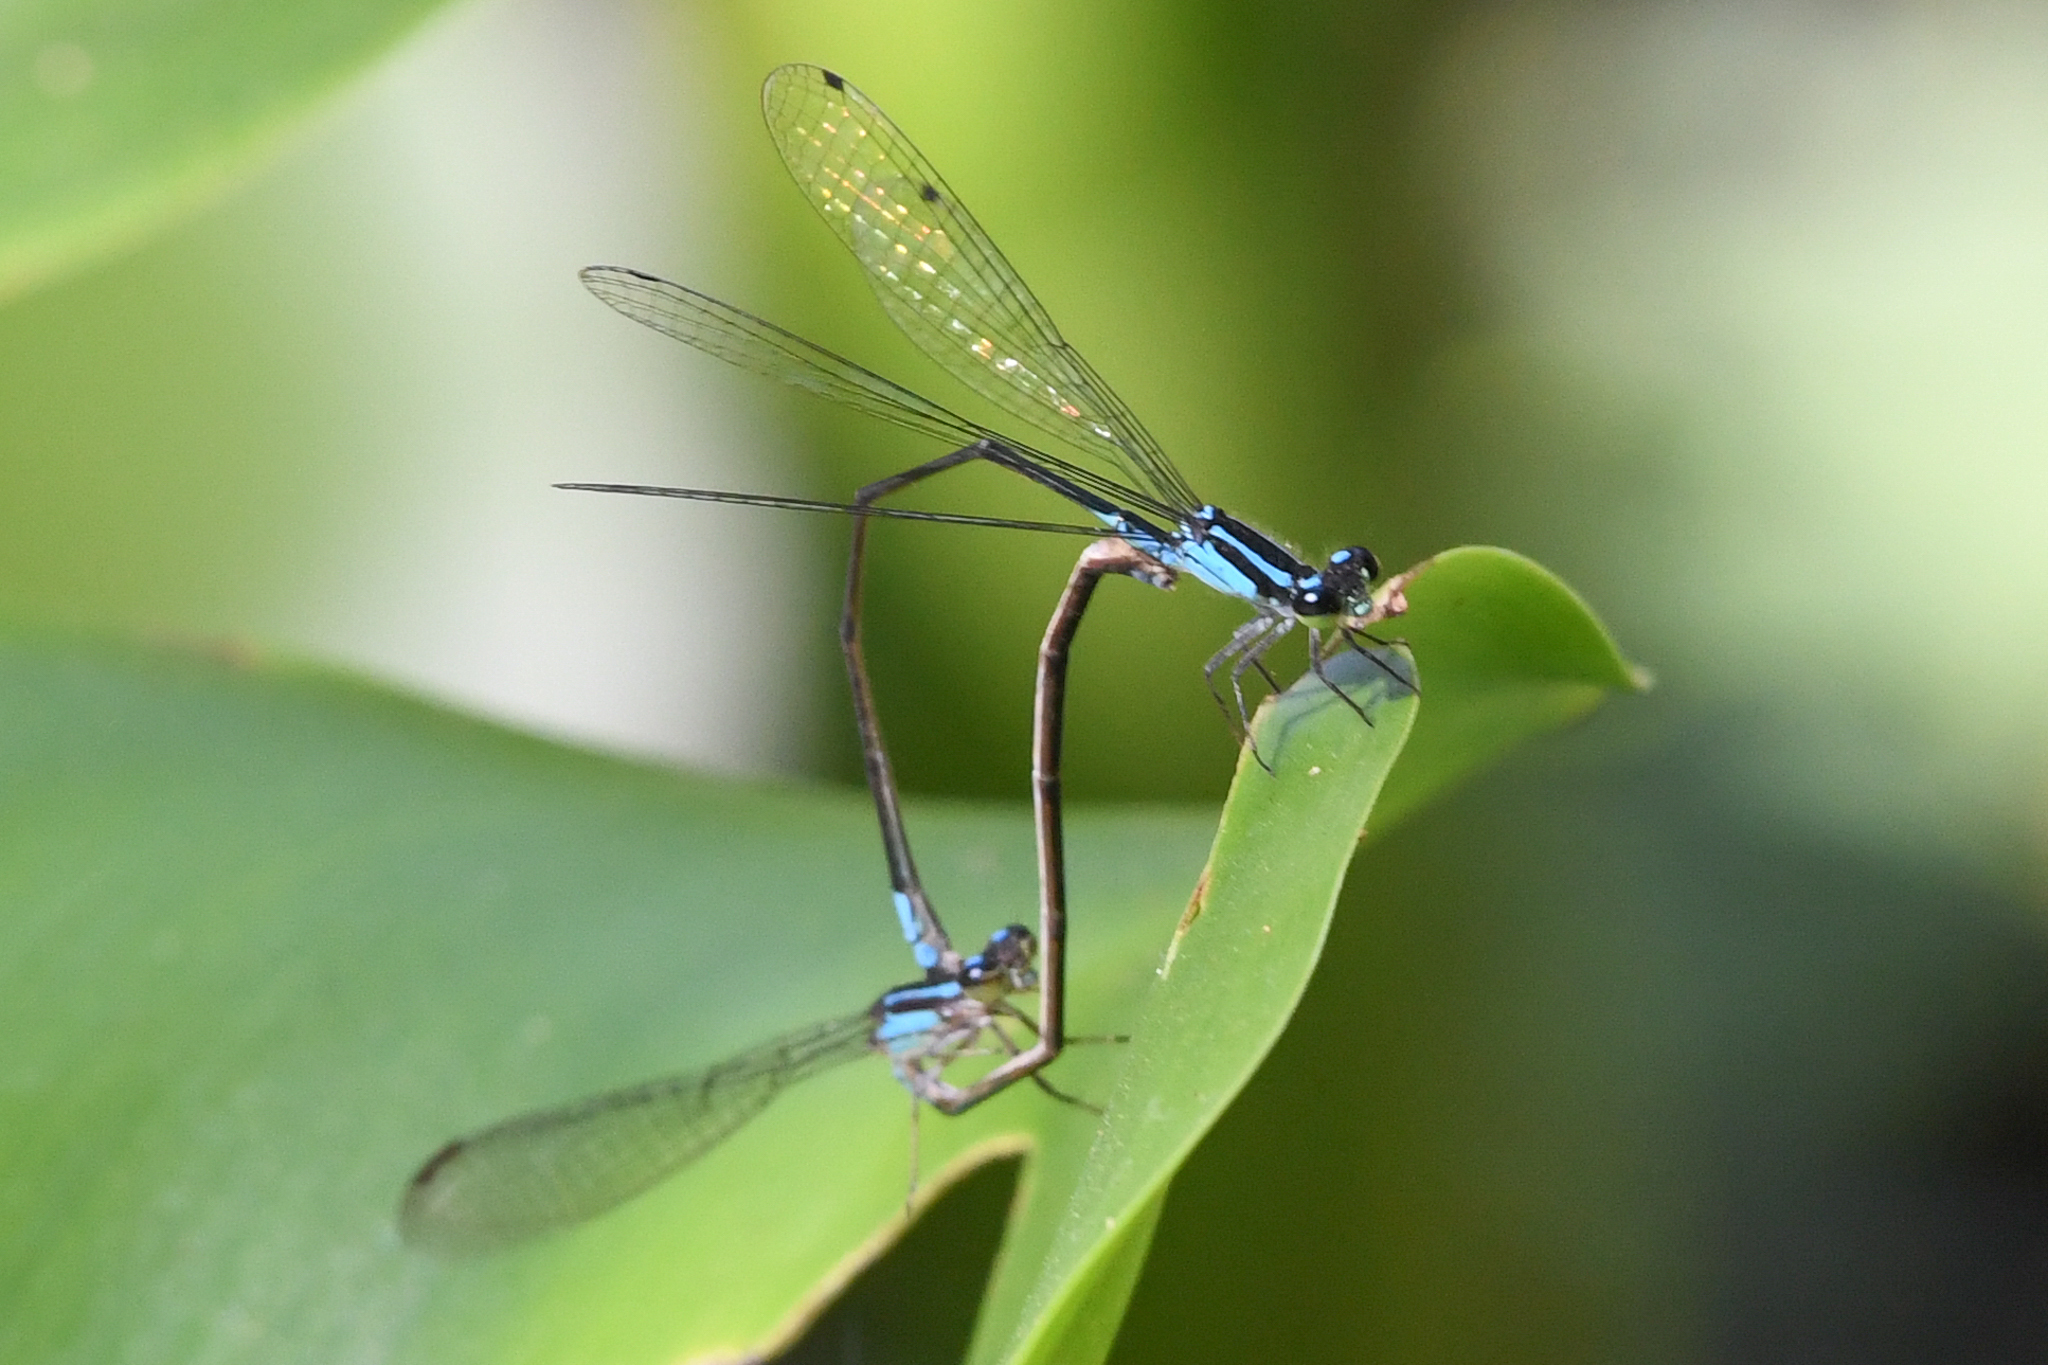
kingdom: Animalia
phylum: Arthropoda
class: Insecta
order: Odonata
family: Coenagrionidae
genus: Acanthagrion
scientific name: Acanthagrion trilobatum
